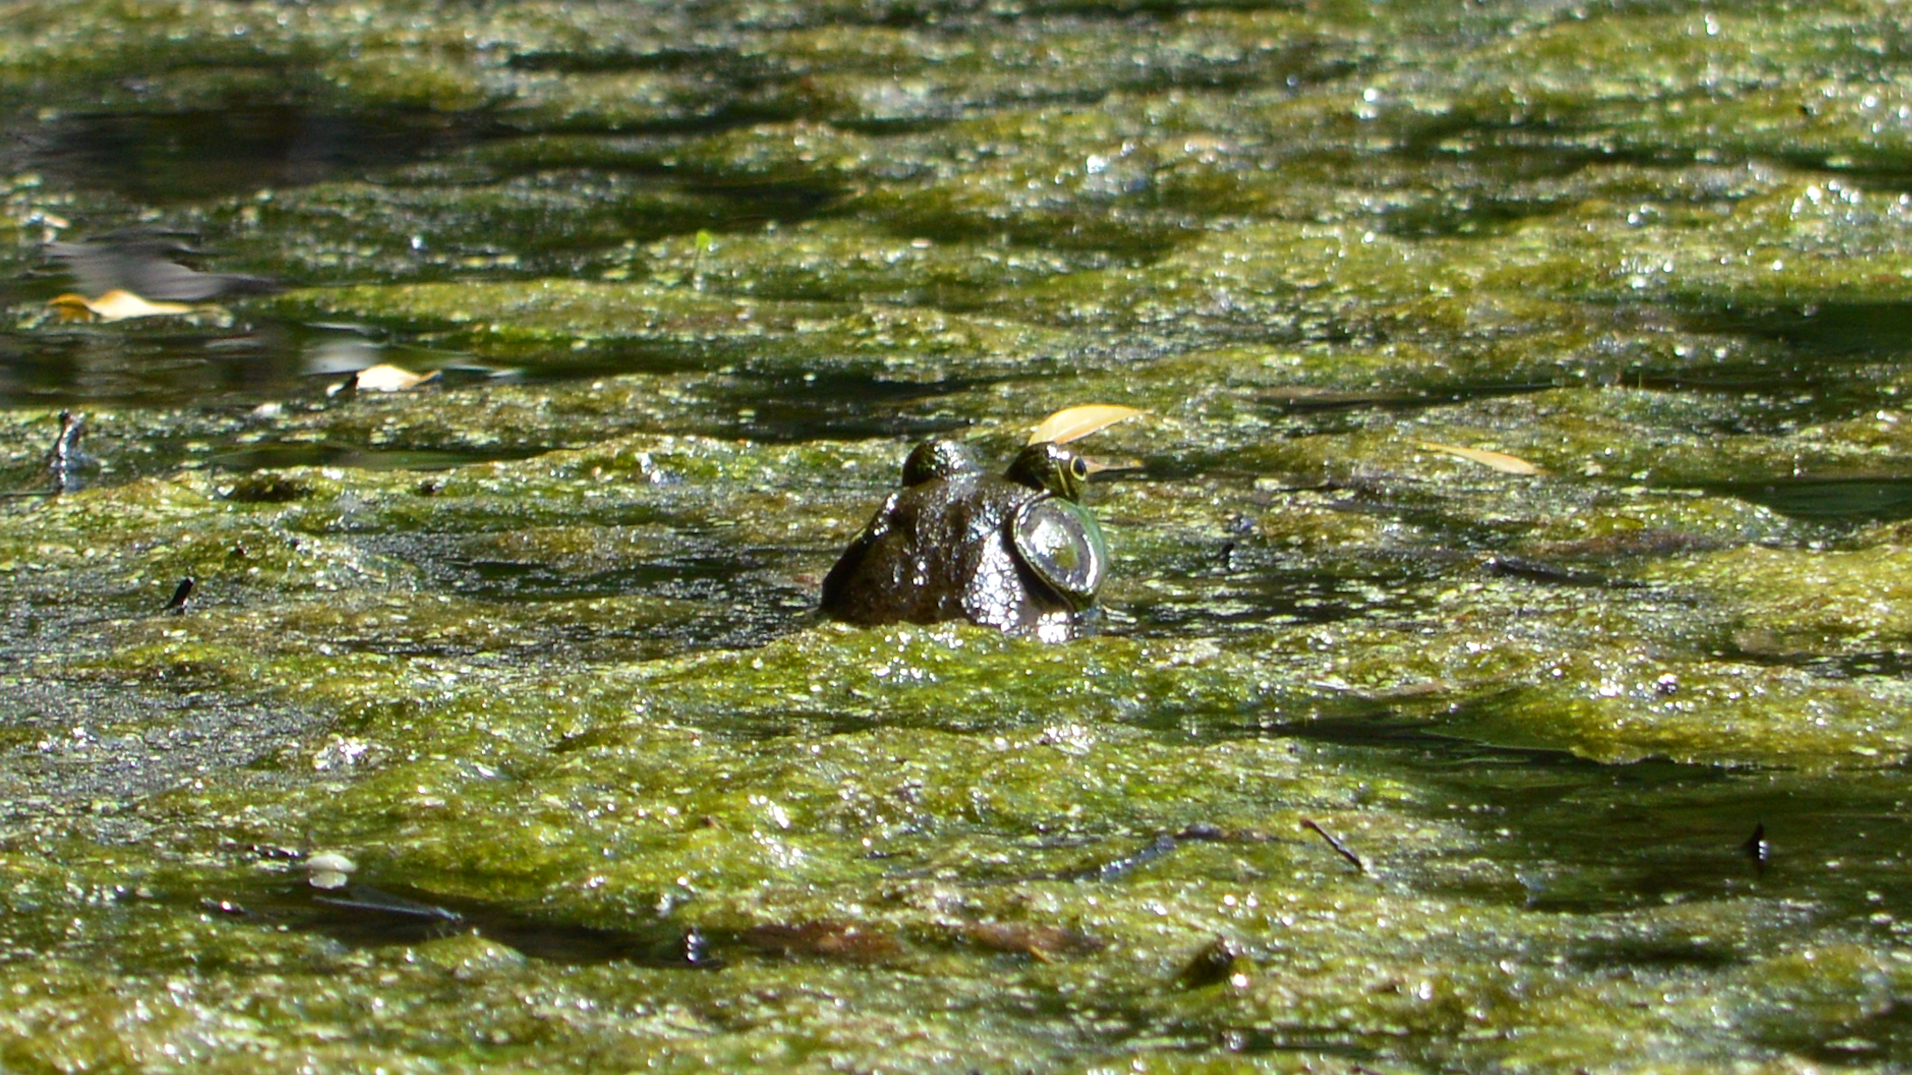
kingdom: Animalia
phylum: Chordata
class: Amphibia
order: Anura
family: Ranidae
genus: Lithobates
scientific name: Lithobates catesbeianus
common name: American bullfrog
